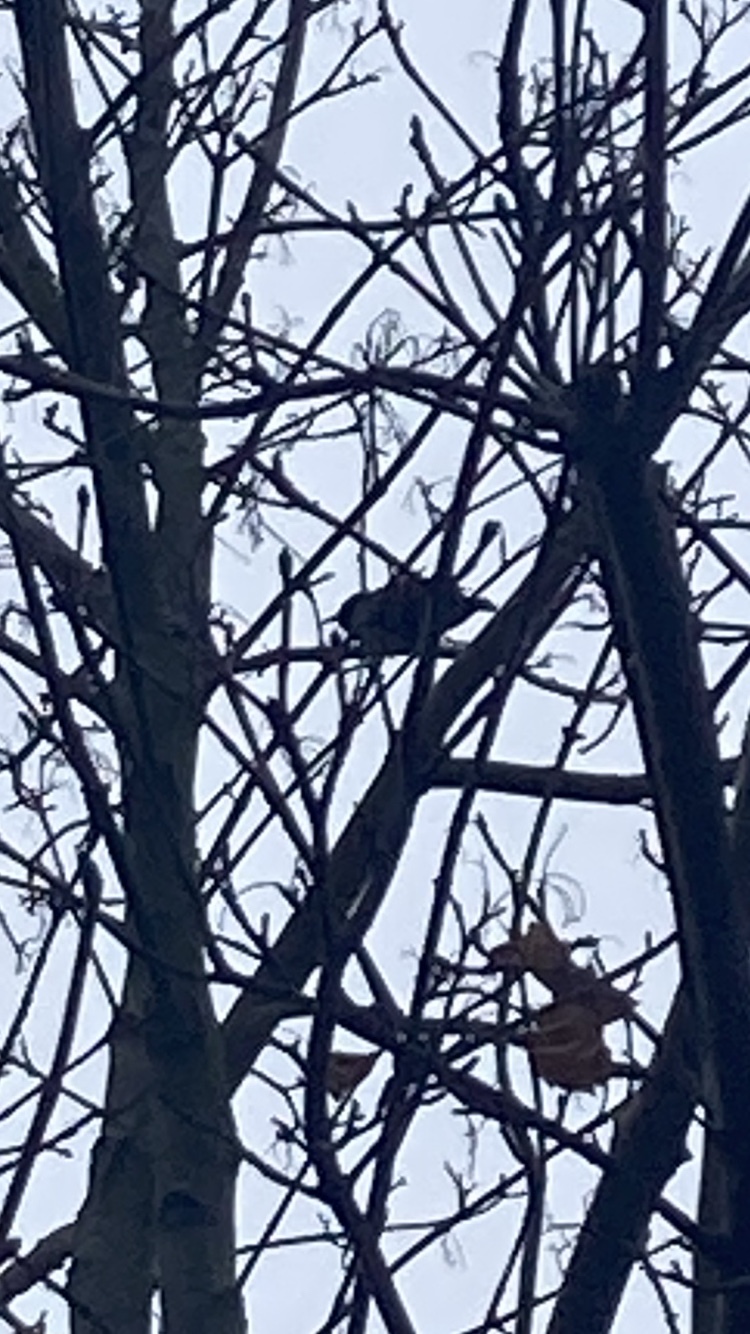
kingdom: Animalia
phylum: Chordata
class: Aves
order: Passeriformes
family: Sturnidae
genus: Sturnus
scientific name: Sturnus vulgaris
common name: Common starling
